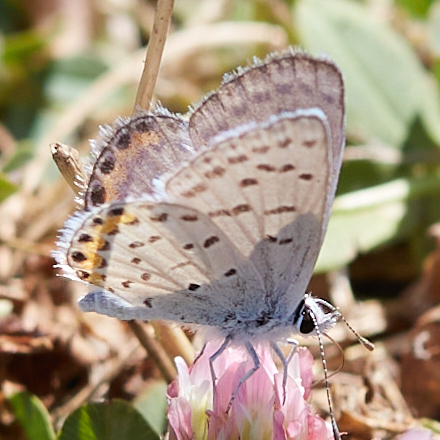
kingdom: Animalia
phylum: Arthropoda
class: Insecta
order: Lepidoptera
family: Lycaenidae
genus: Icaricia
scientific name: Icaricia acmon
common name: Acmon blue
